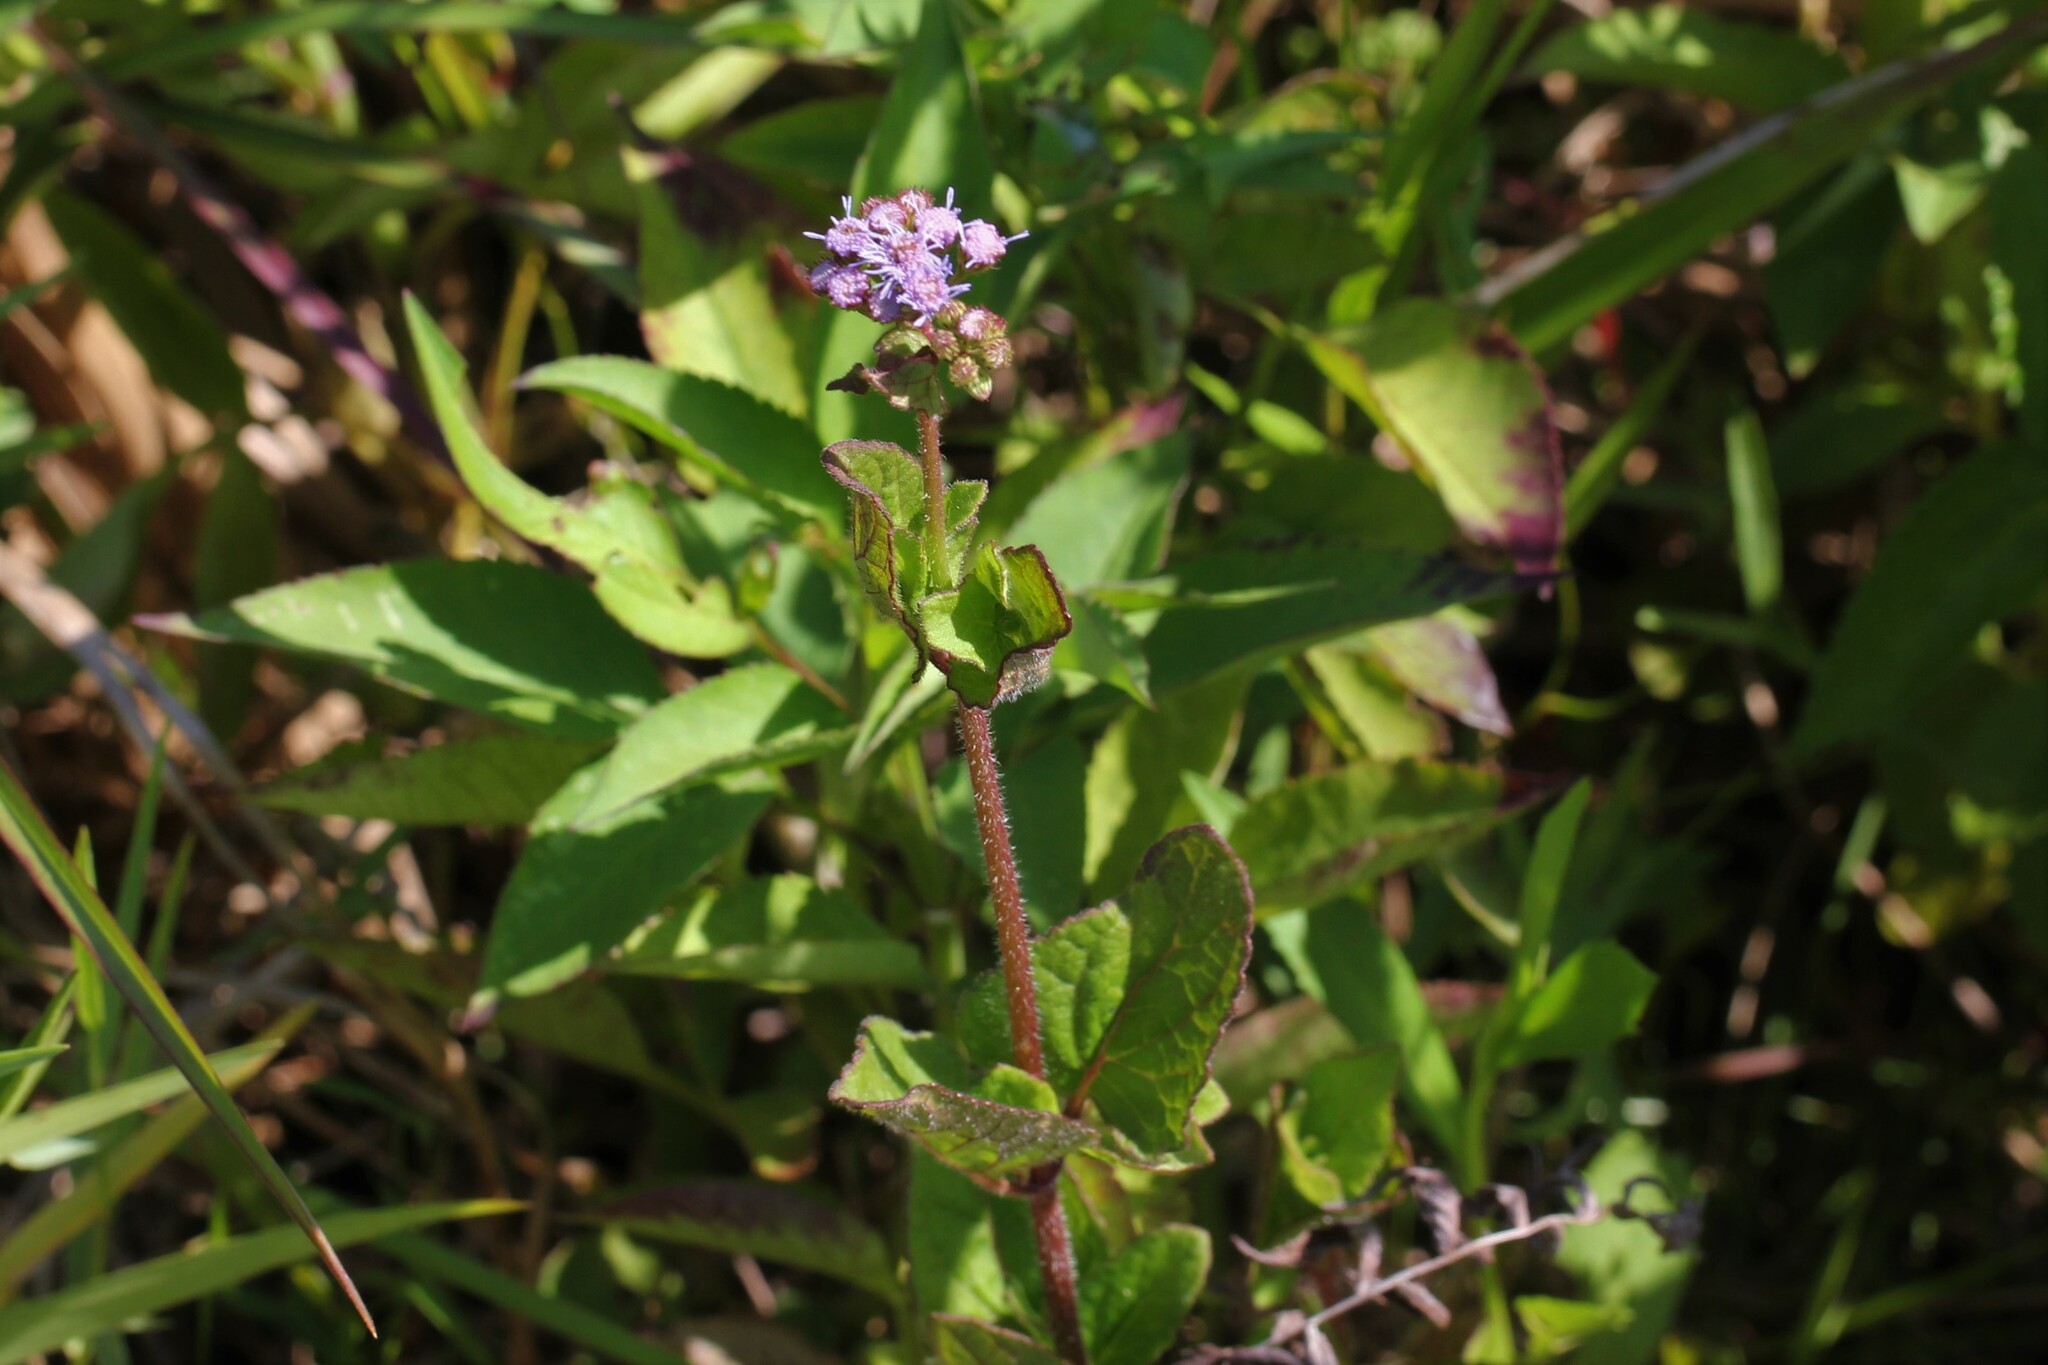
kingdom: Plantae
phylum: Tracheophyta
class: Magnoliopsida
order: Asterales
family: Asteraceae
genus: Conoclinium
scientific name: Conoclinium coelestinum
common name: Blue mistflower
